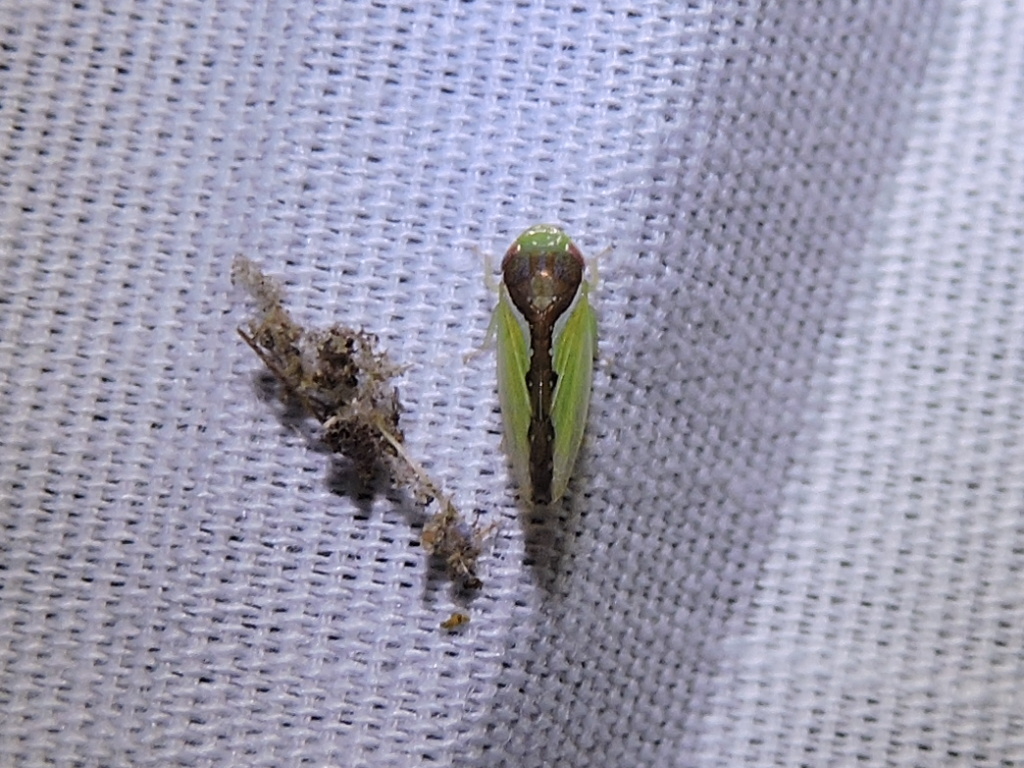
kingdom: Animalia
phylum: Arthropoda
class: Insecta
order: Hemiptera
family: Cicadellidae
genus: Omansobara ing
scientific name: Omansobara ing Omansobara palliolata
